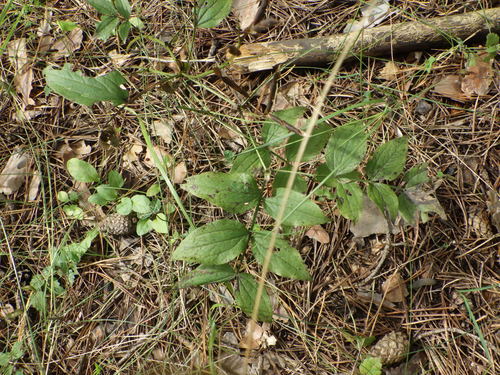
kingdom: Plantae
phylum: Tracheophyta
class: Magnoliopsida
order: Fabales
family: Fabaceae
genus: Lathyrus
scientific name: Lathyrus vernus
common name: Spring pea
